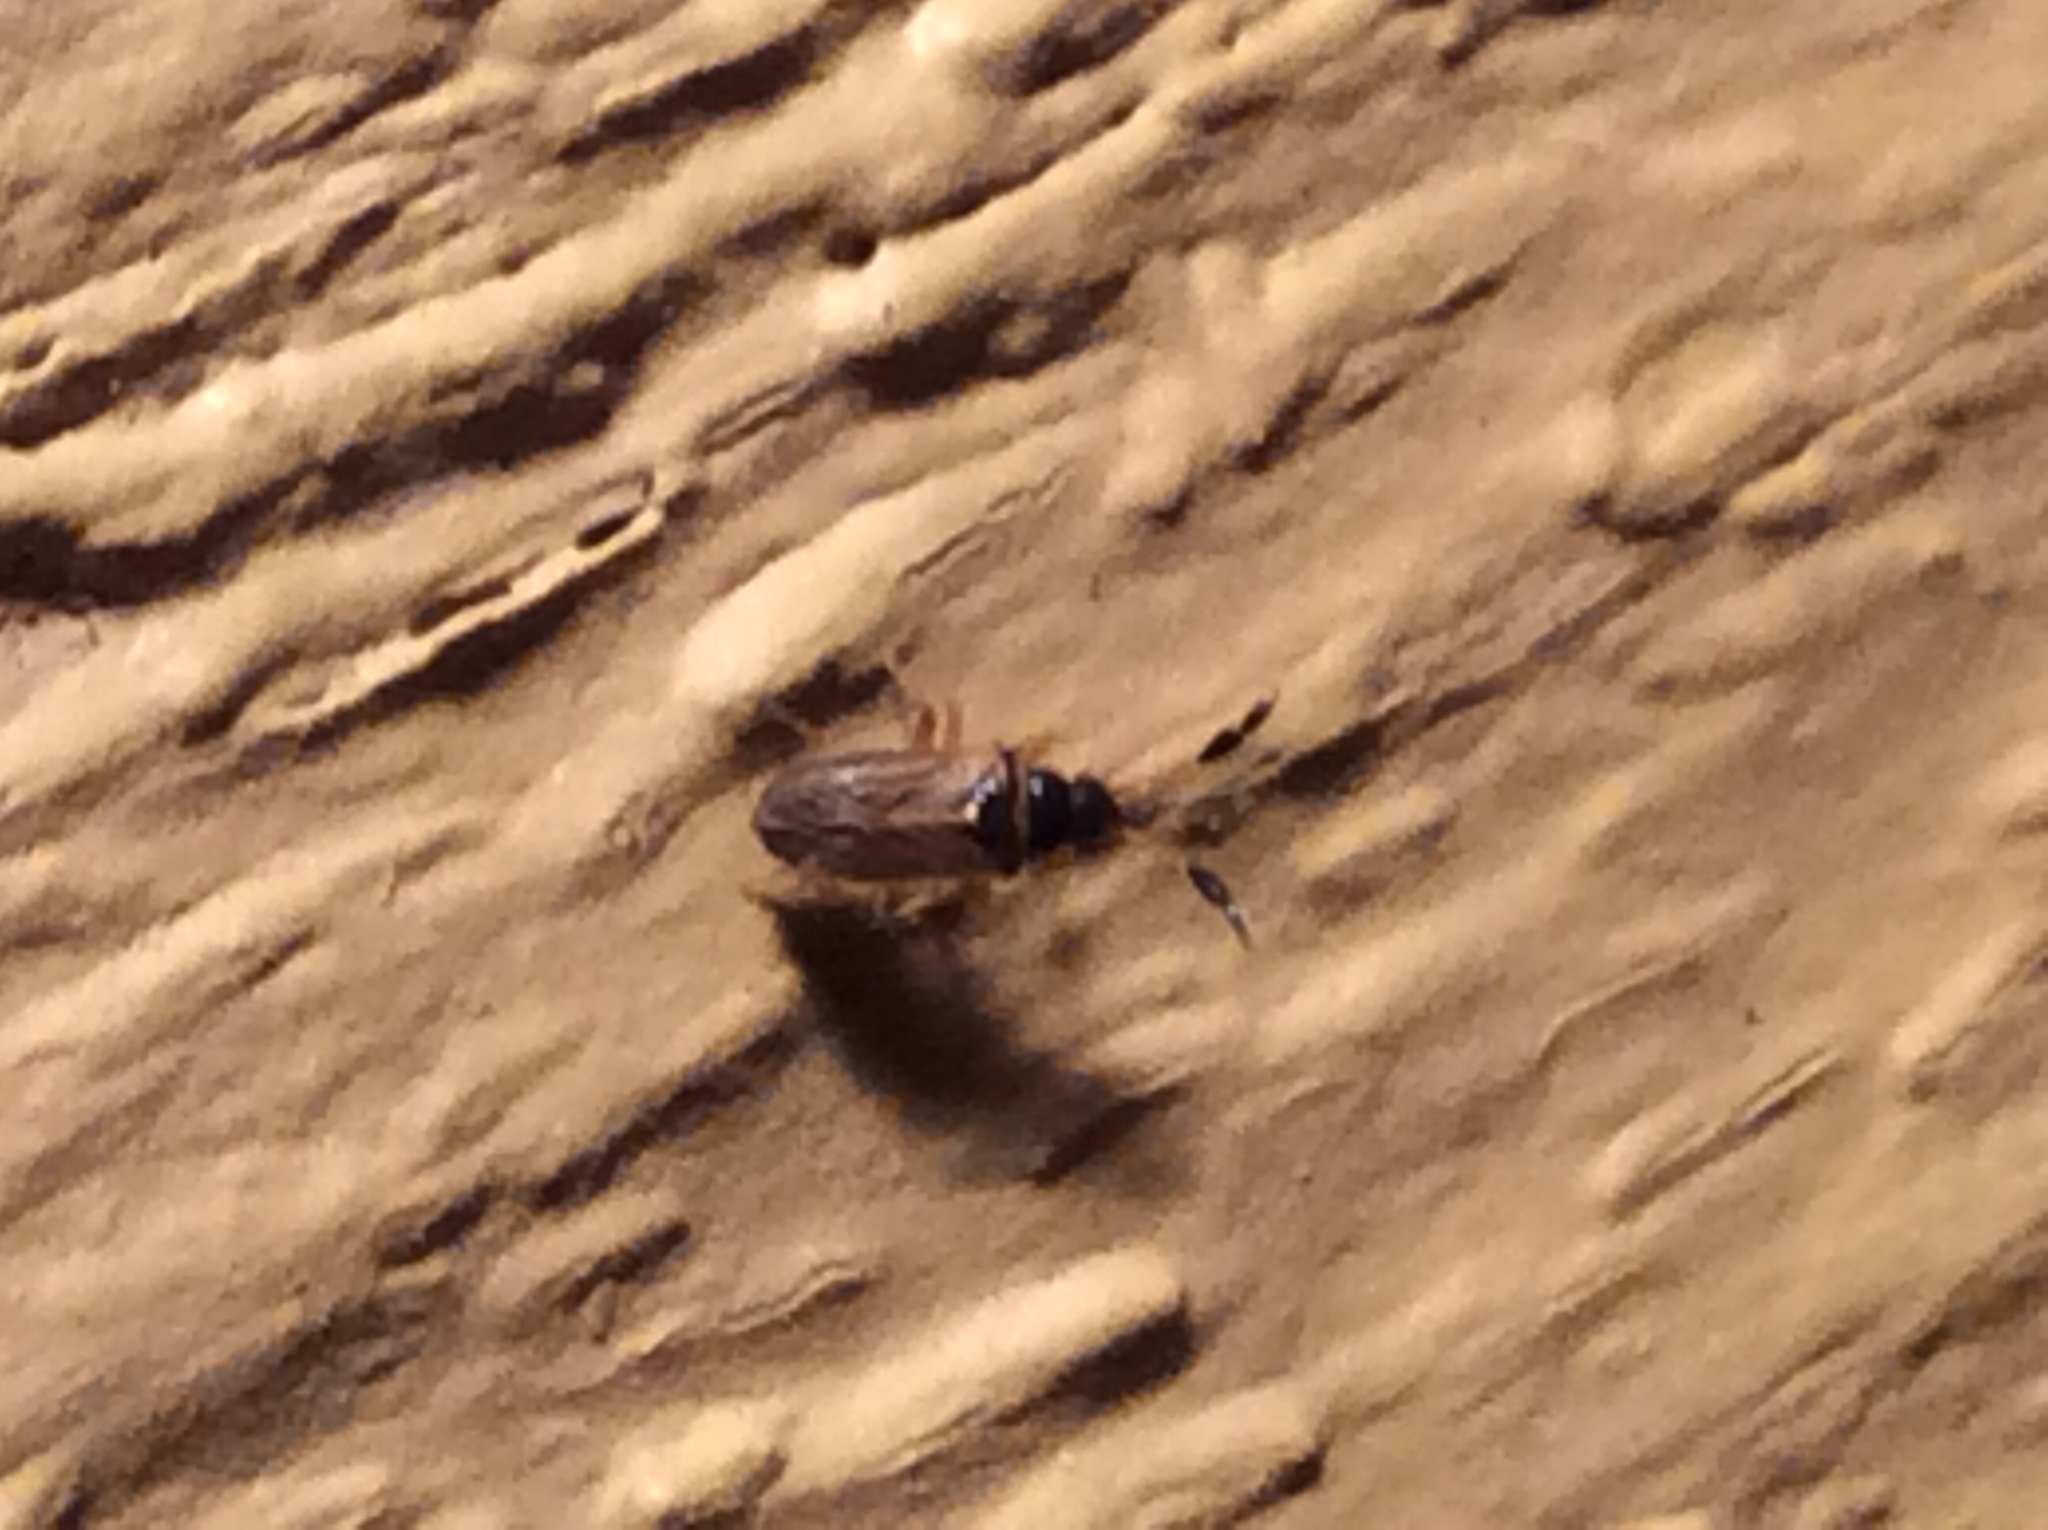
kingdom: Animalia
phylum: Arthropoda
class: Insecta
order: Hemiptera
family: Rhyparochromidae
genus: Ptochiomera
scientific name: Ptochiomera nodosa
